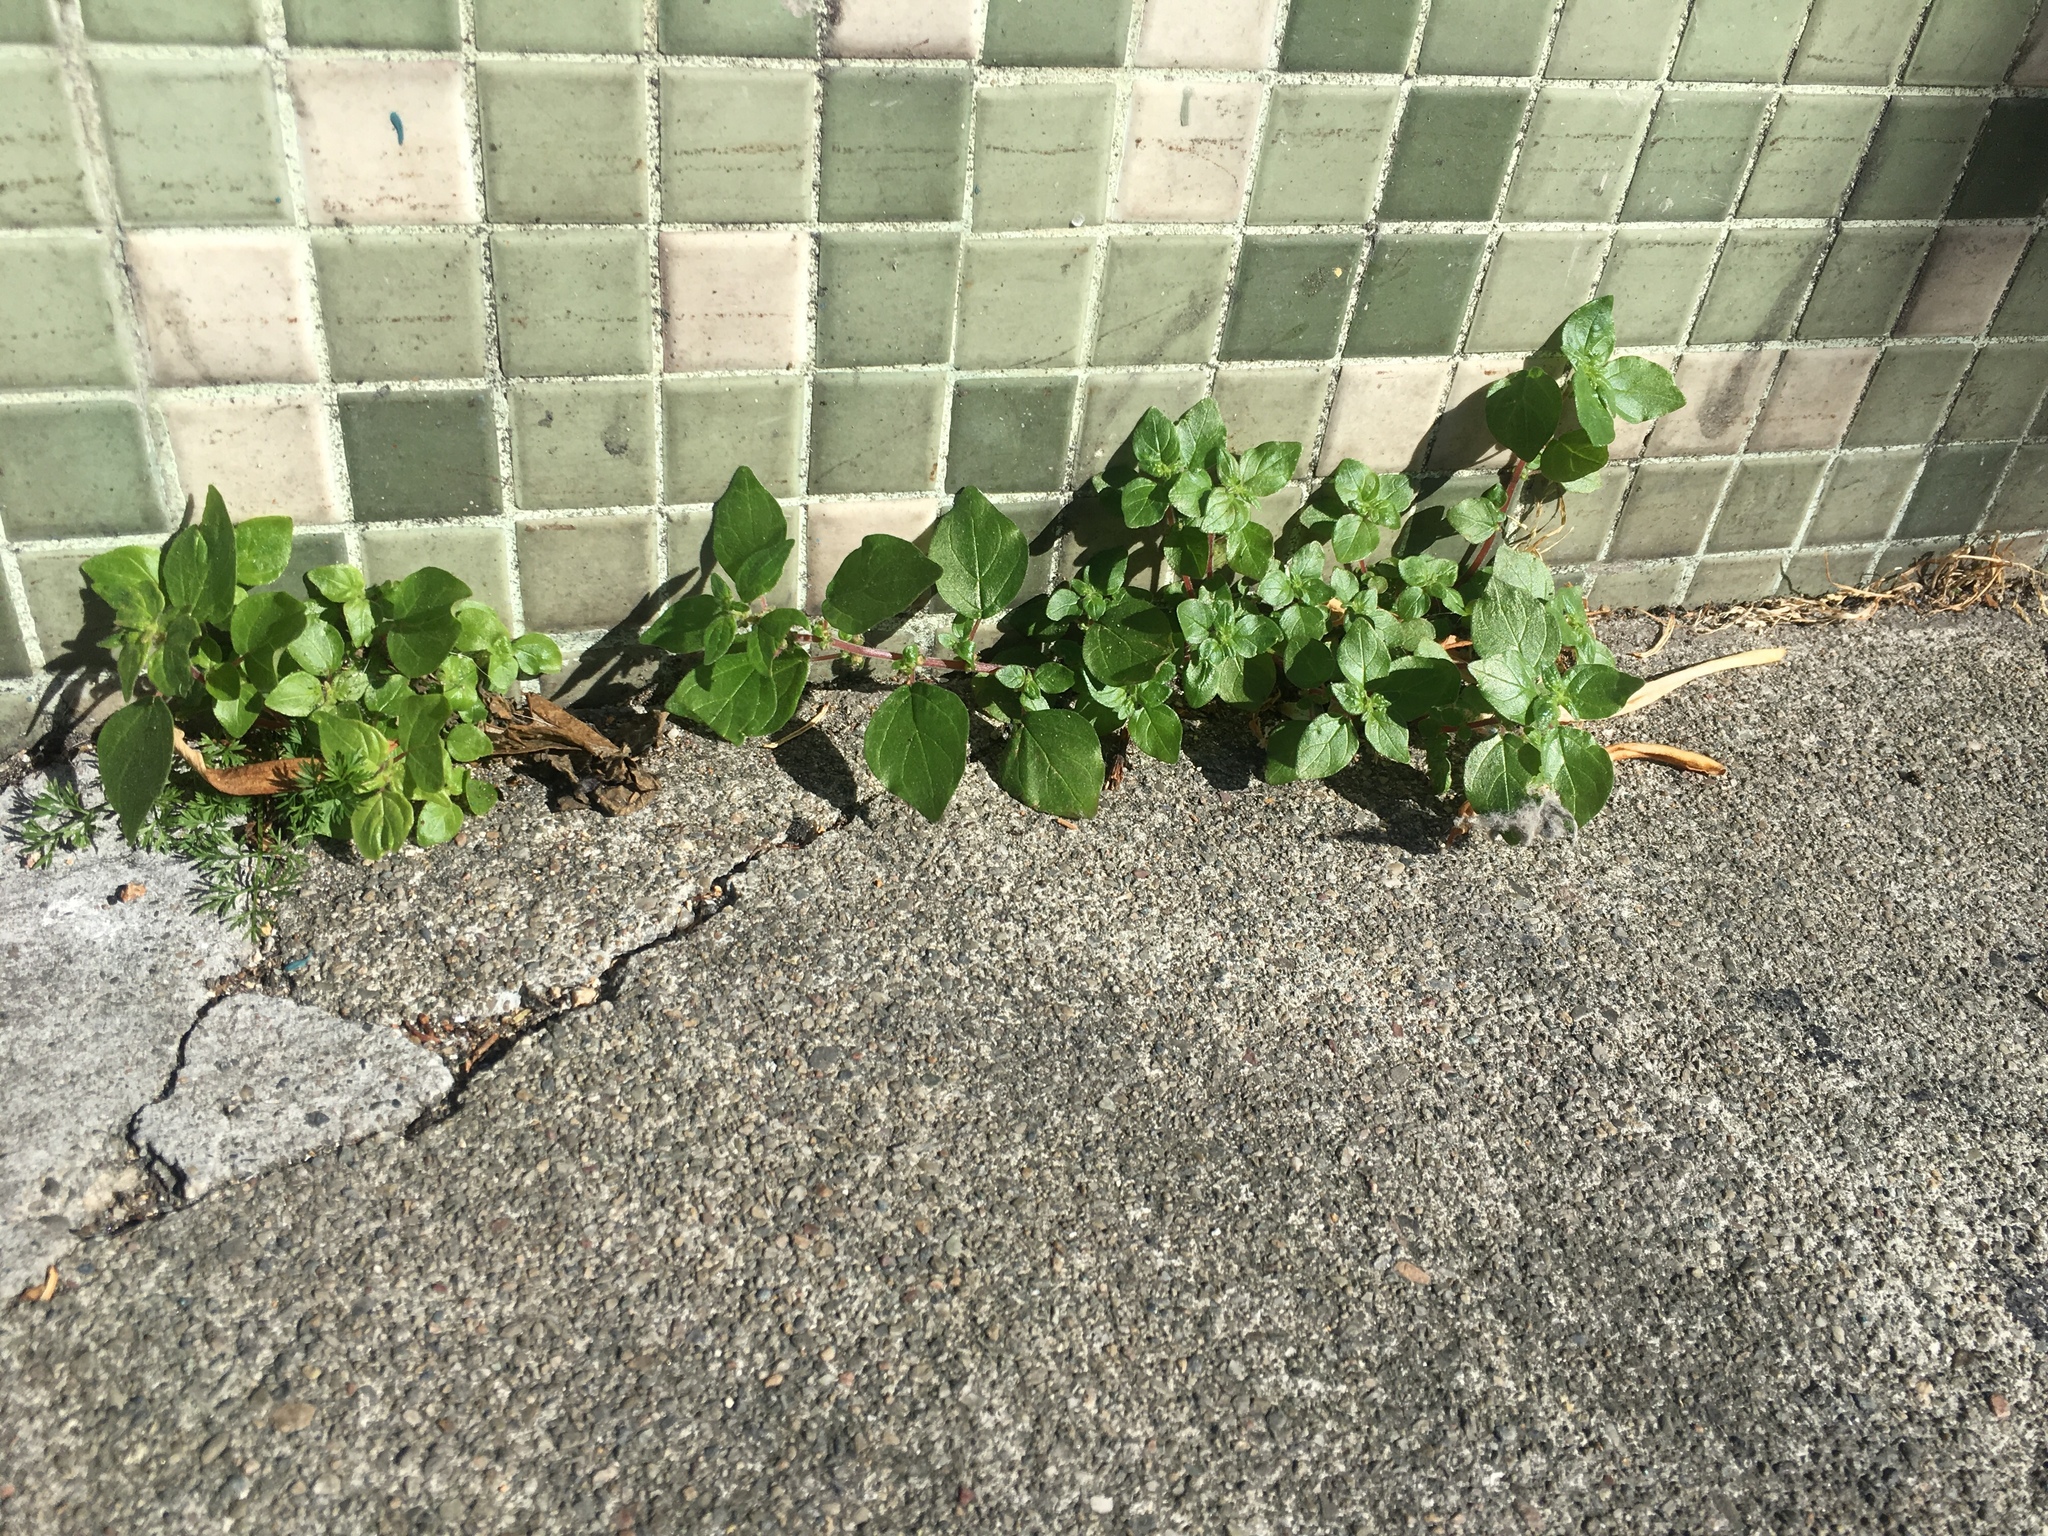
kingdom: Plantae
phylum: Tracheophyta
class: Magnoliopsida
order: Rosales
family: Urticaceae
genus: Parietaria
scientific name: Parietaria judaica
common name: Pellitory-of-the-wall
